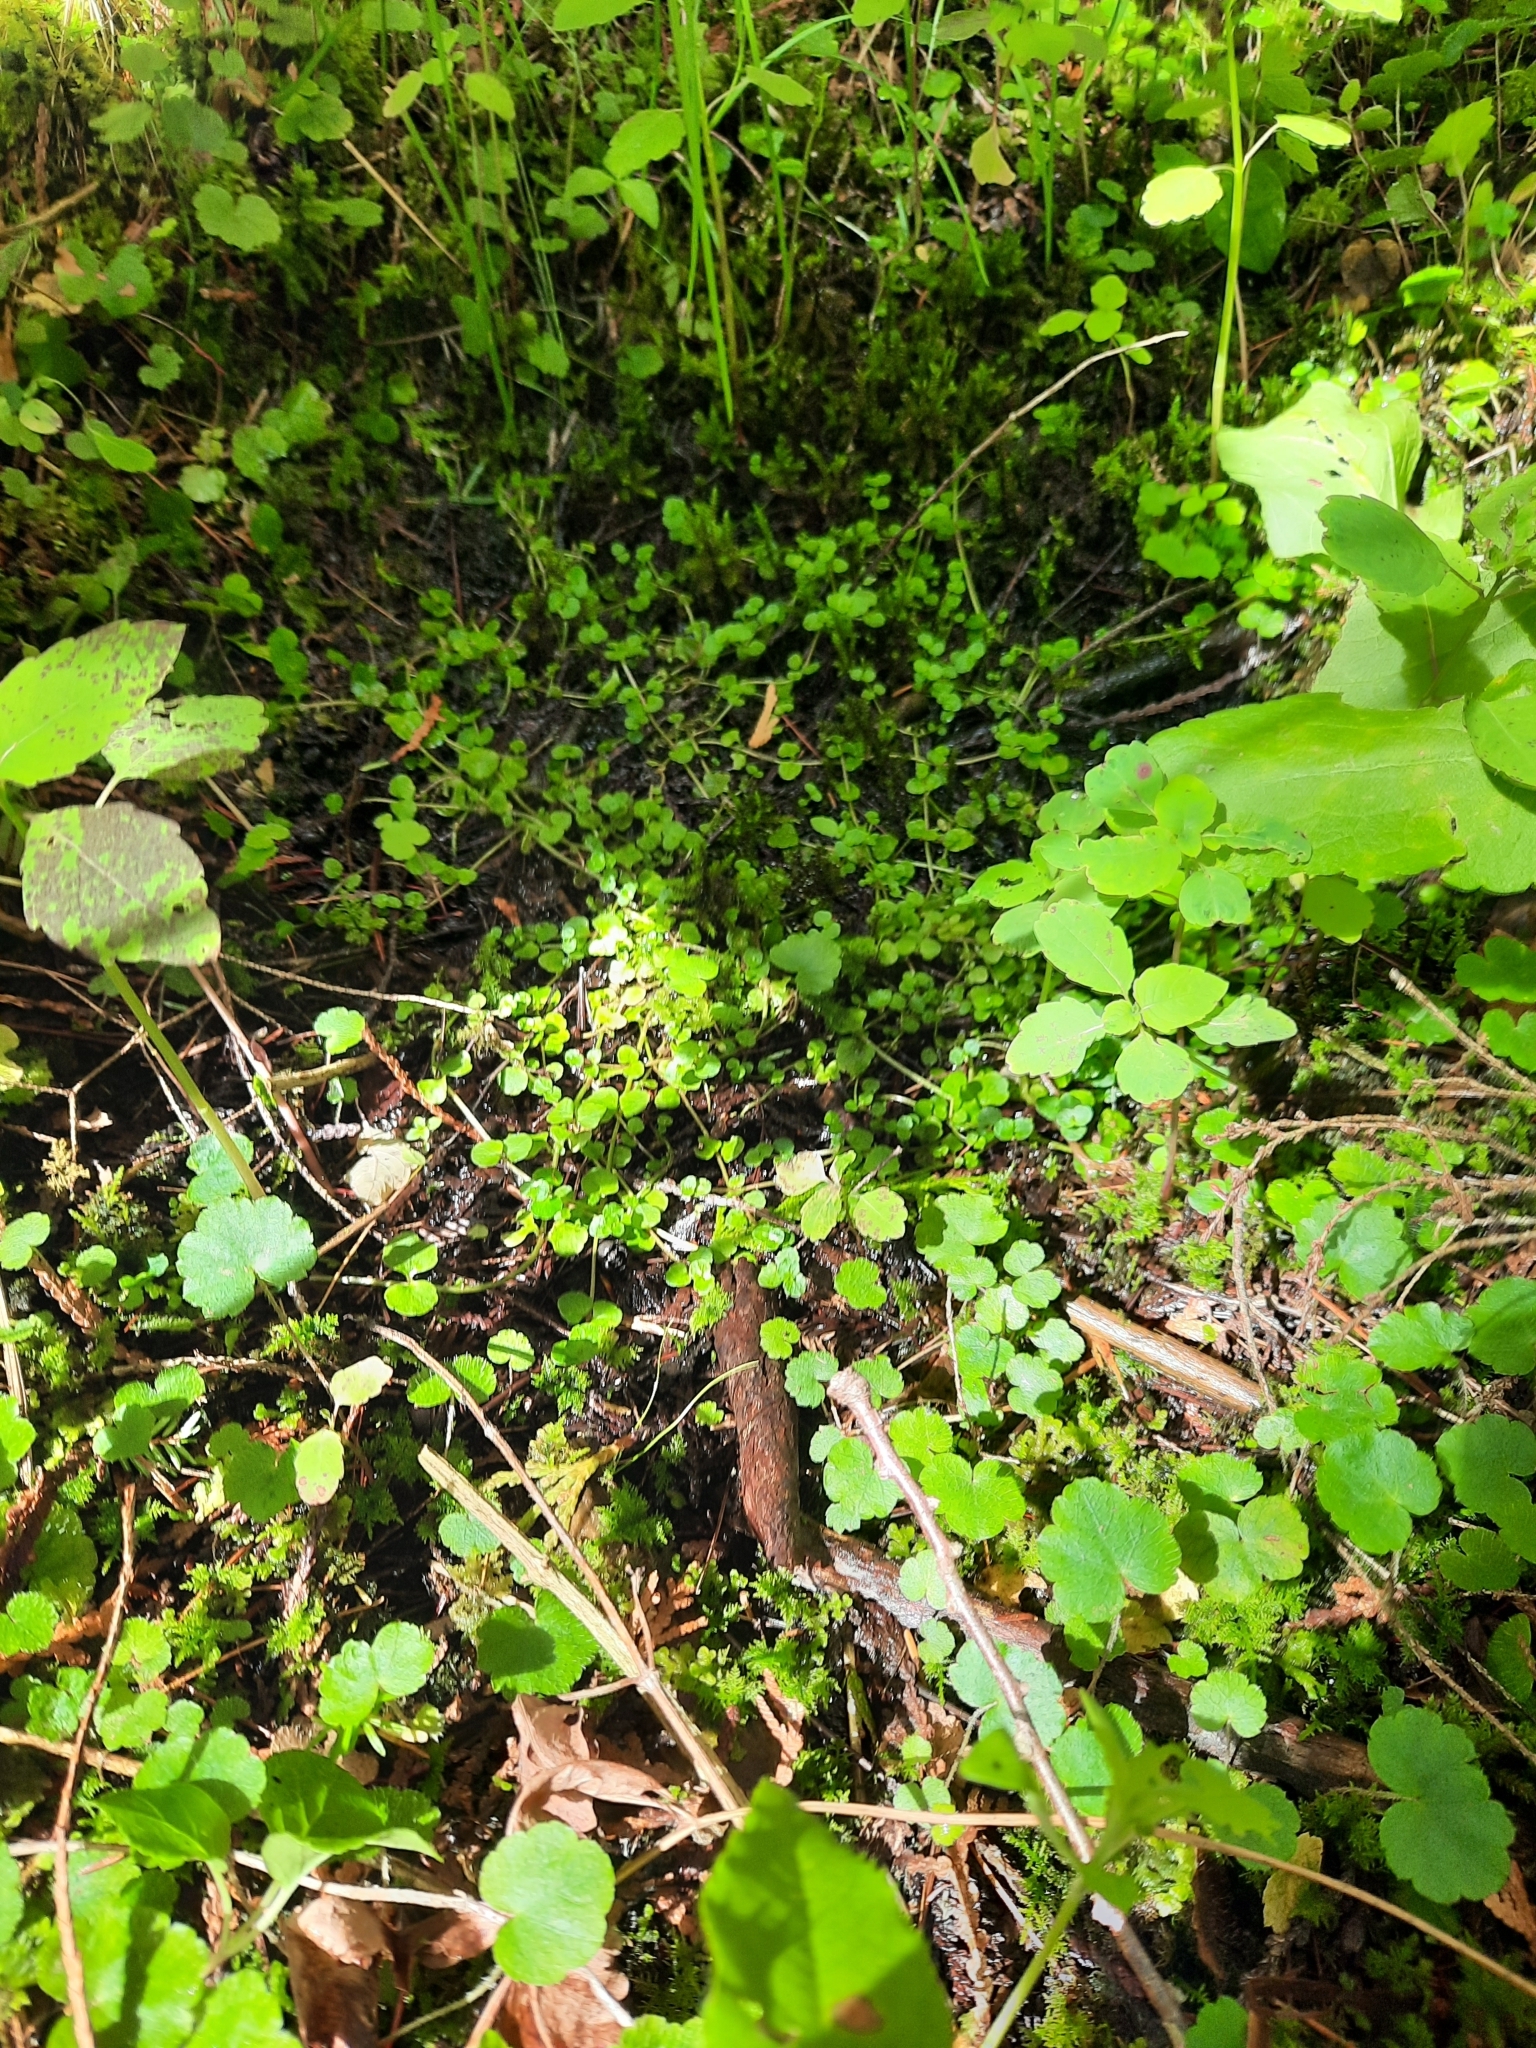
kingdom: Plantae
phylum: Tracheophyta
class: Magnoliopsida
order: Saxifragales
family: Saxifragaceae
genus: Chrysosplenium
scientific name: Chrysosplenium americanum
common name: American golden-saxifrage
